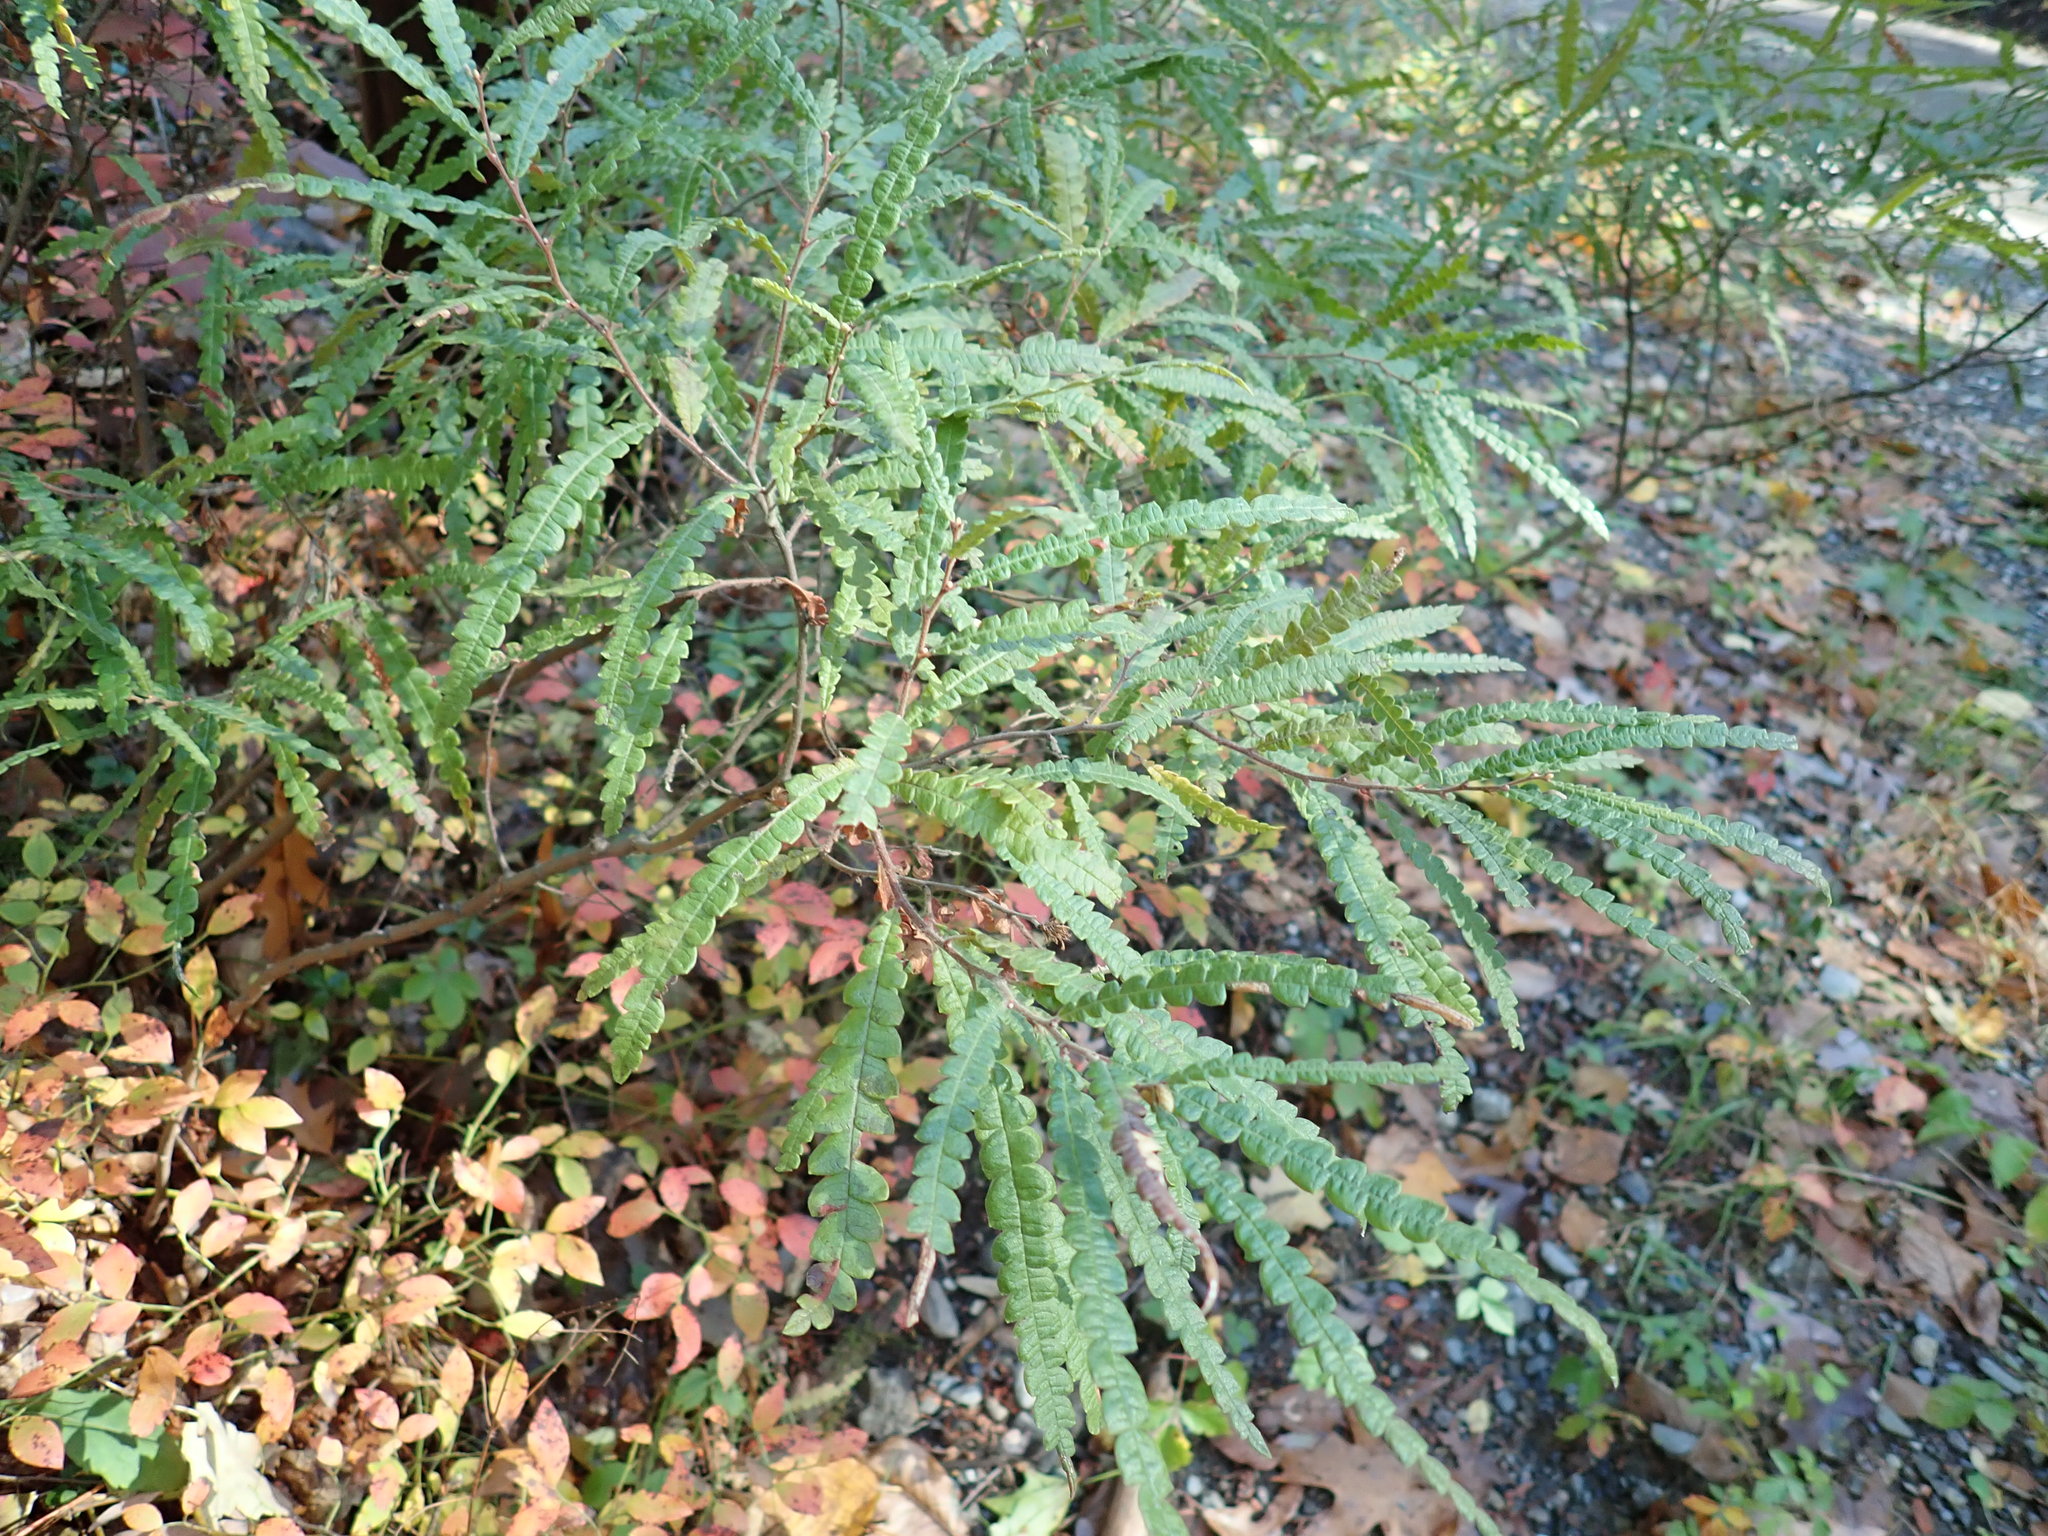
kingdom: Plantae
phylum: Tracheophyta
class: Magnoliopsida
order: Fagales
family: Myricaceae
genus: Comptonia
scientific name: Comptonia peregrina
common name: Sweet-fern
